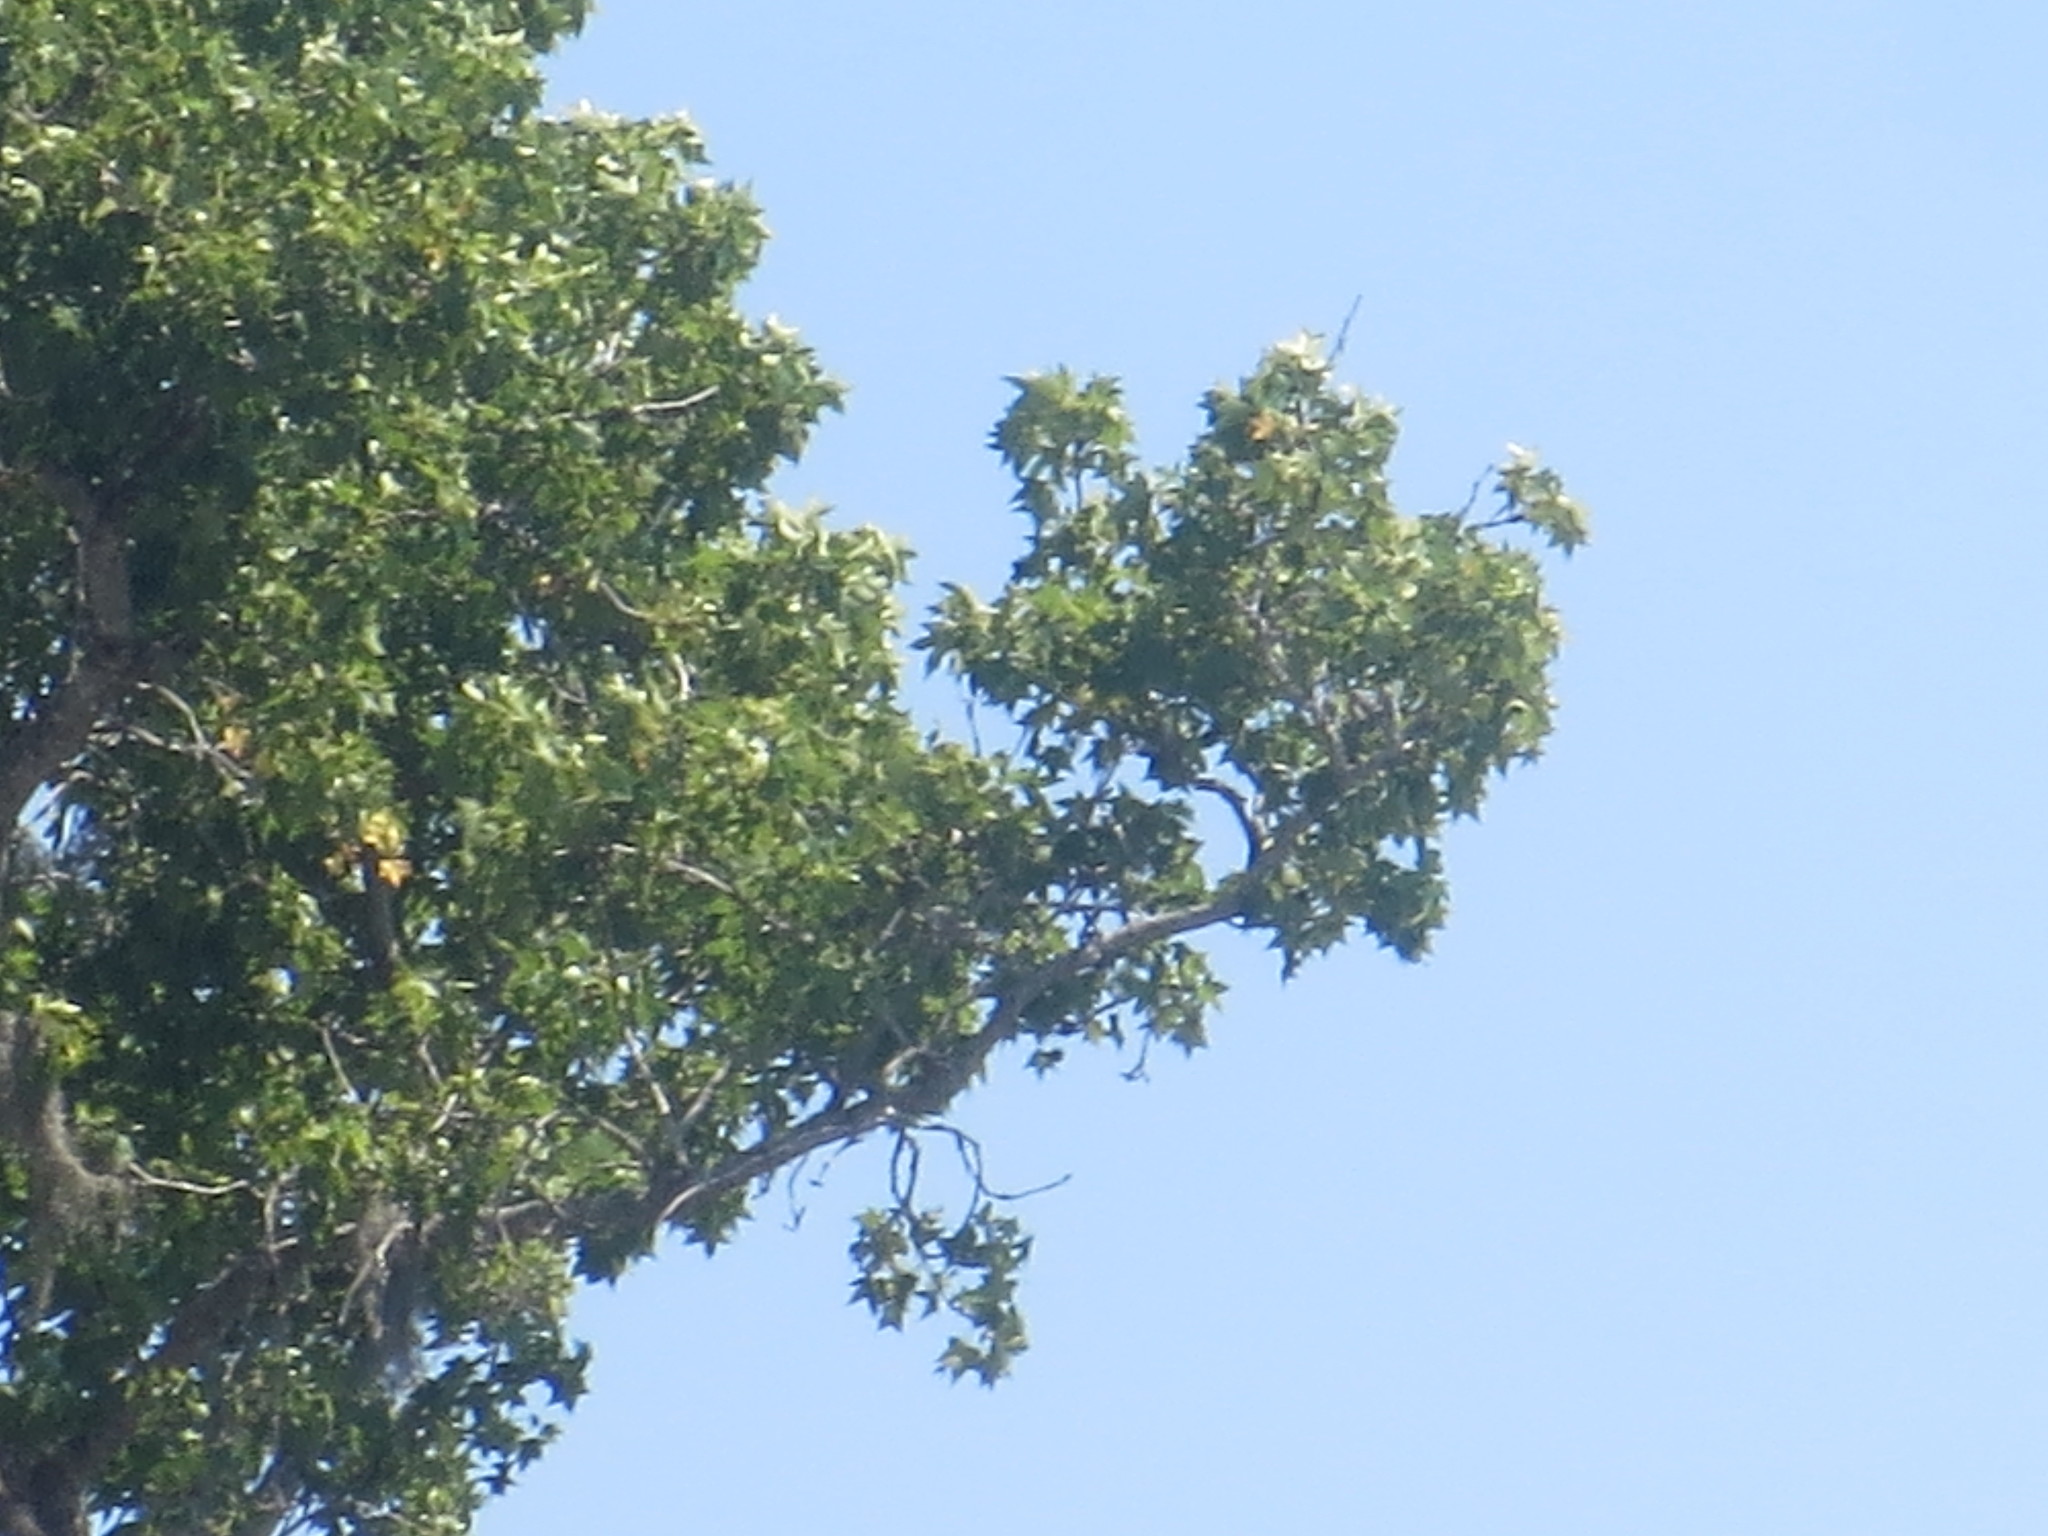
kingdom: Plantae
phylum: Tracheophyta
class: Magnoliopsida
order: Saxifragales
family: Altingiaceae
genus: Liquidambar
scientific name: Liquidambar styraciflua
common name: Sweet gum
